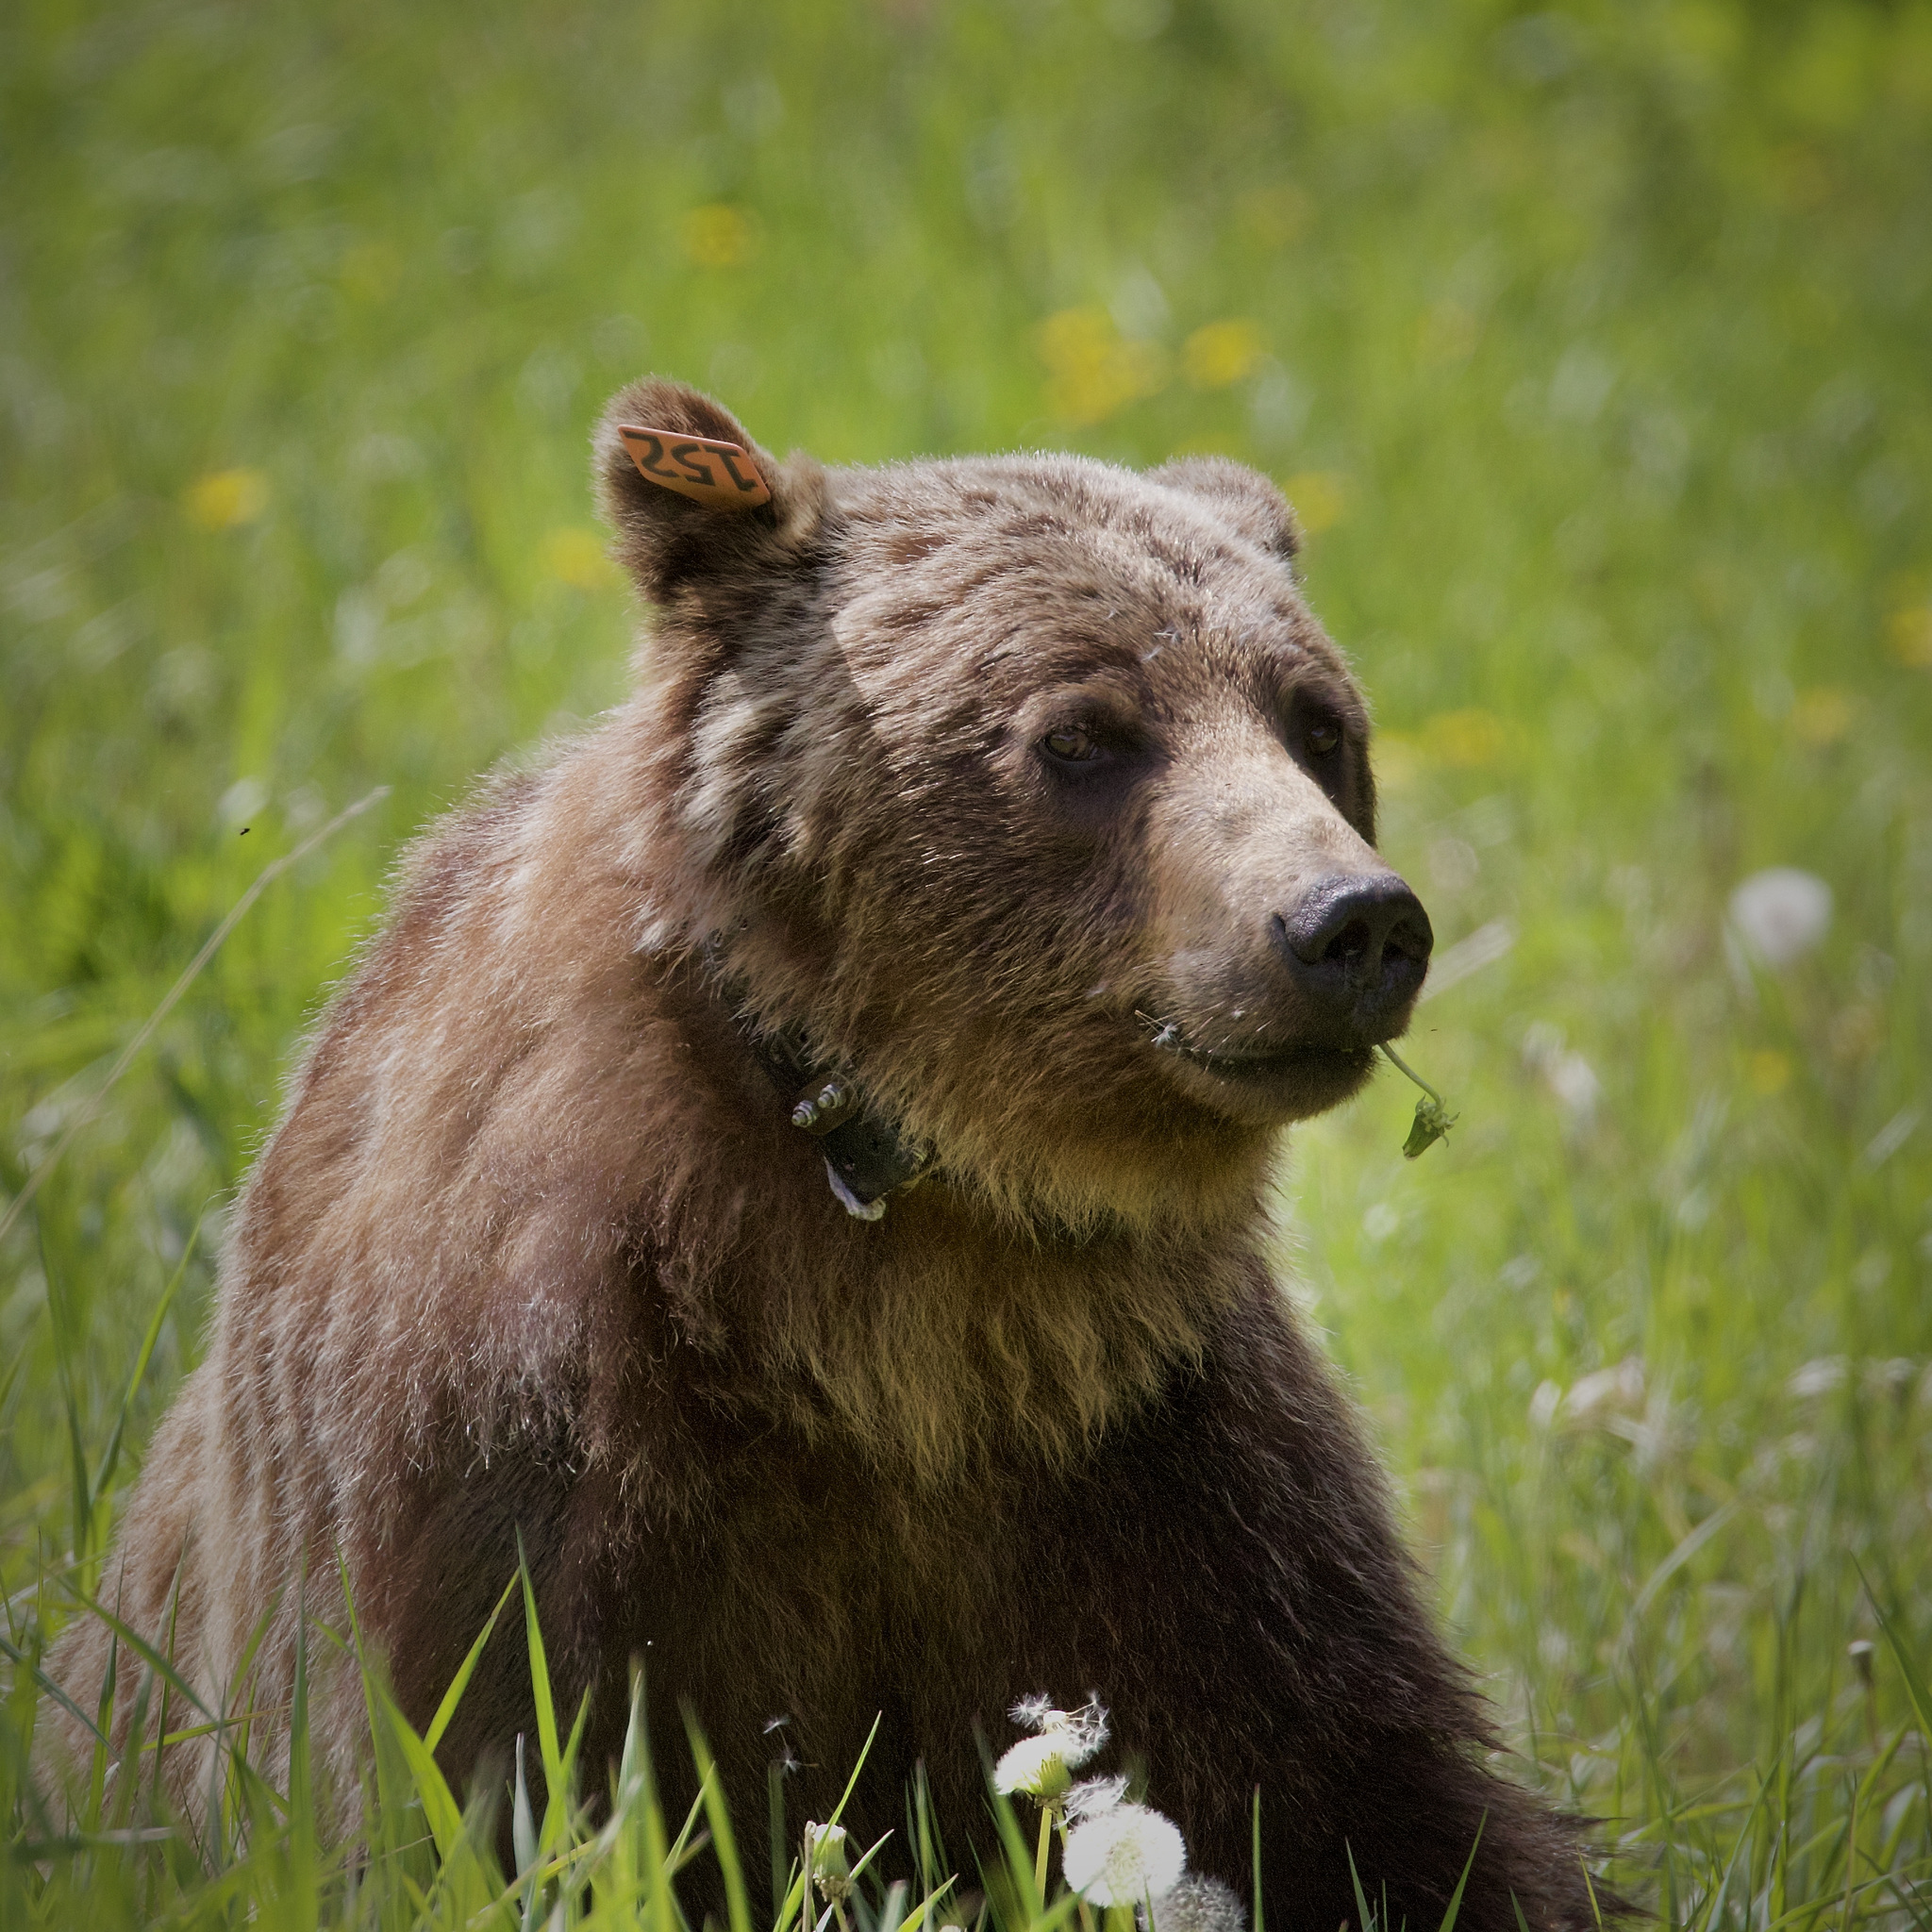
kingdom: Animalia
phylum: Chordata
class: Mammalia
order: Carnivora
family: Ursidae
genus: Ursus
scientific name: Ursus arctos
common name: Brown bear
